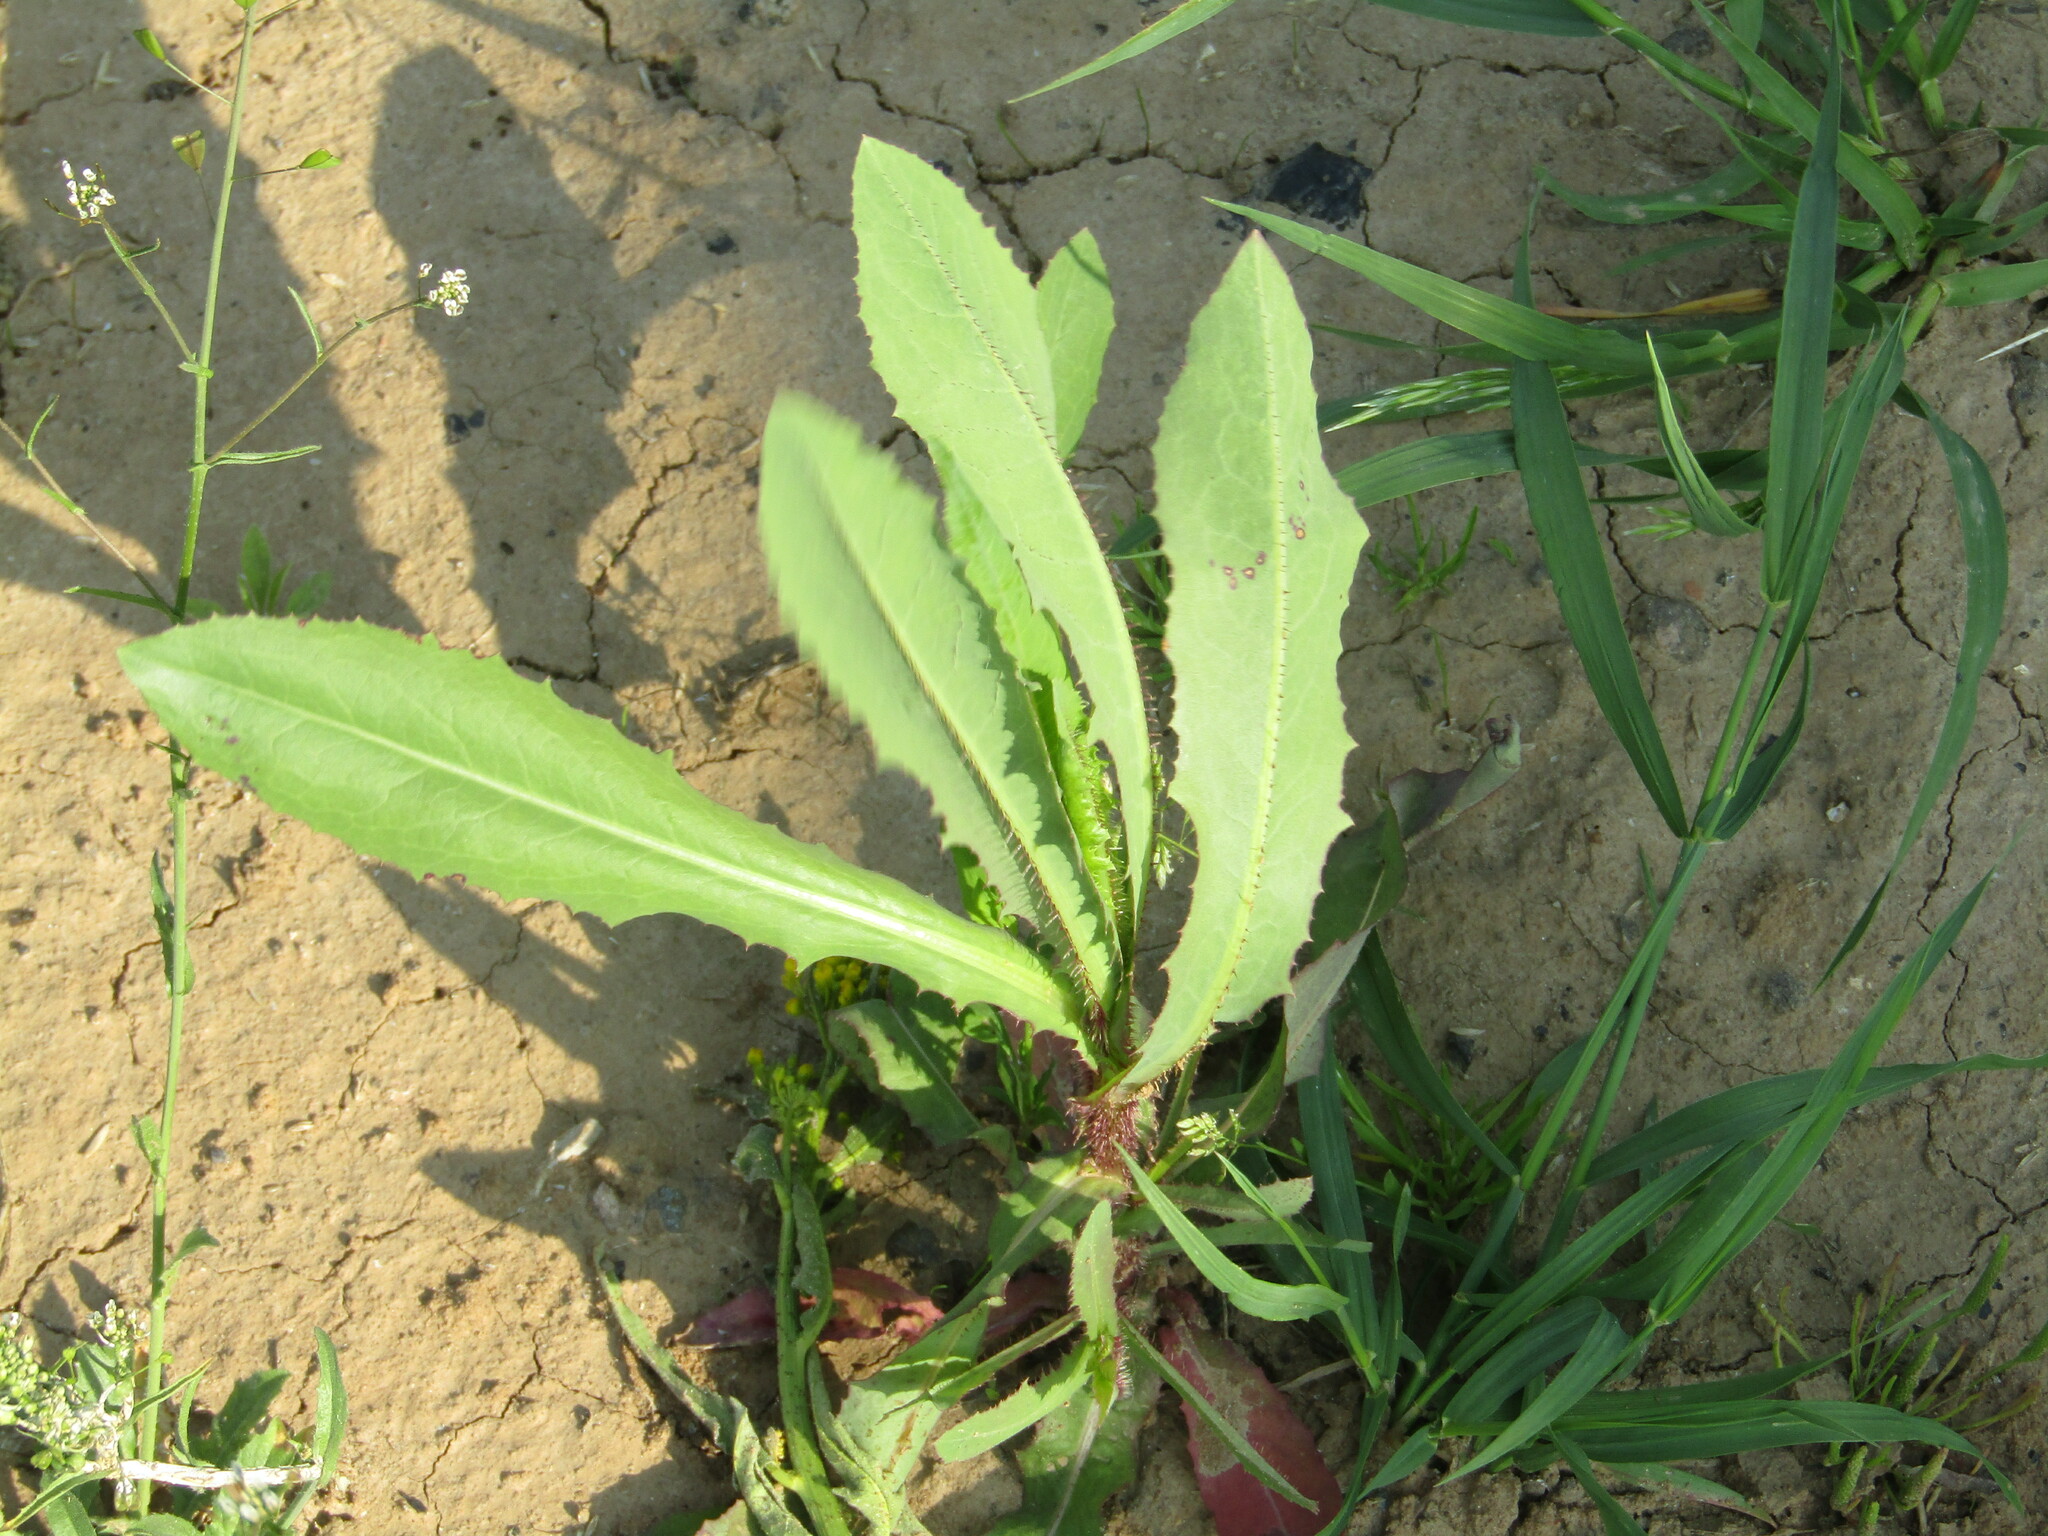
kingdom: Plantae
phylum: Tracheophyta
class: Magnoliopsida
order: Asterales
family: Asteraceae
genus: Lactuca
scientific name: Lactuca serriola
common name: Prickly lettuce
